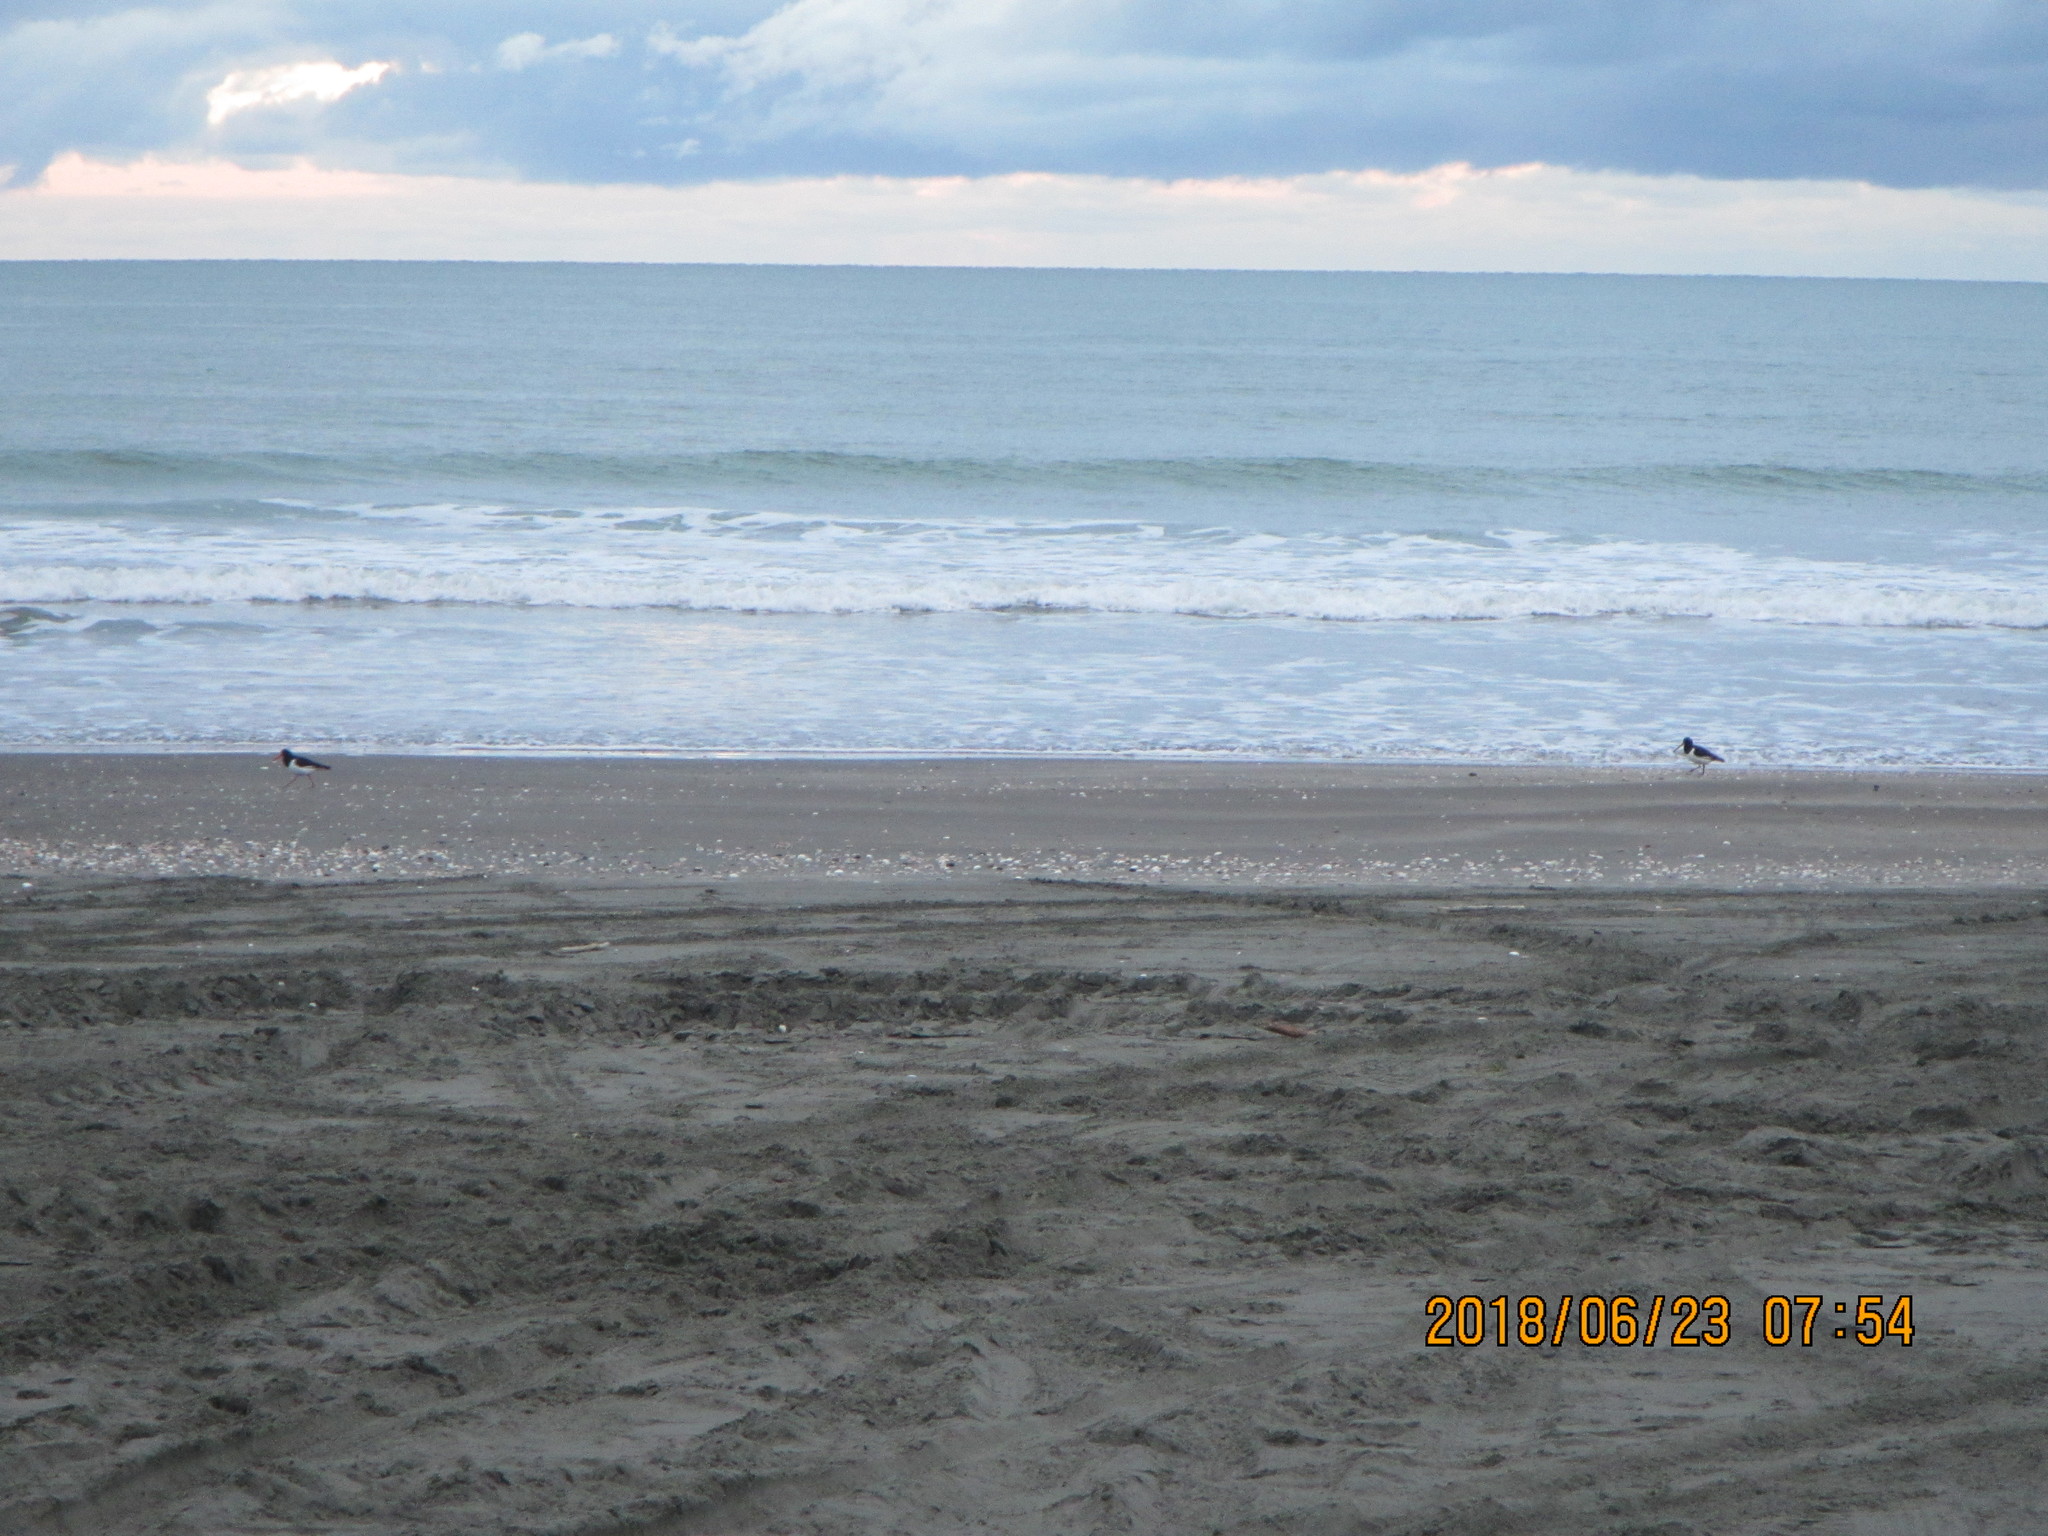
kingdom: Animalia
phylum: Chordata
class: Aves
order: Charadriiformes
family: Haematopodidae
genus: Haematopus
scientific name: Haematopus finschi
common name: South island oystercatcher
